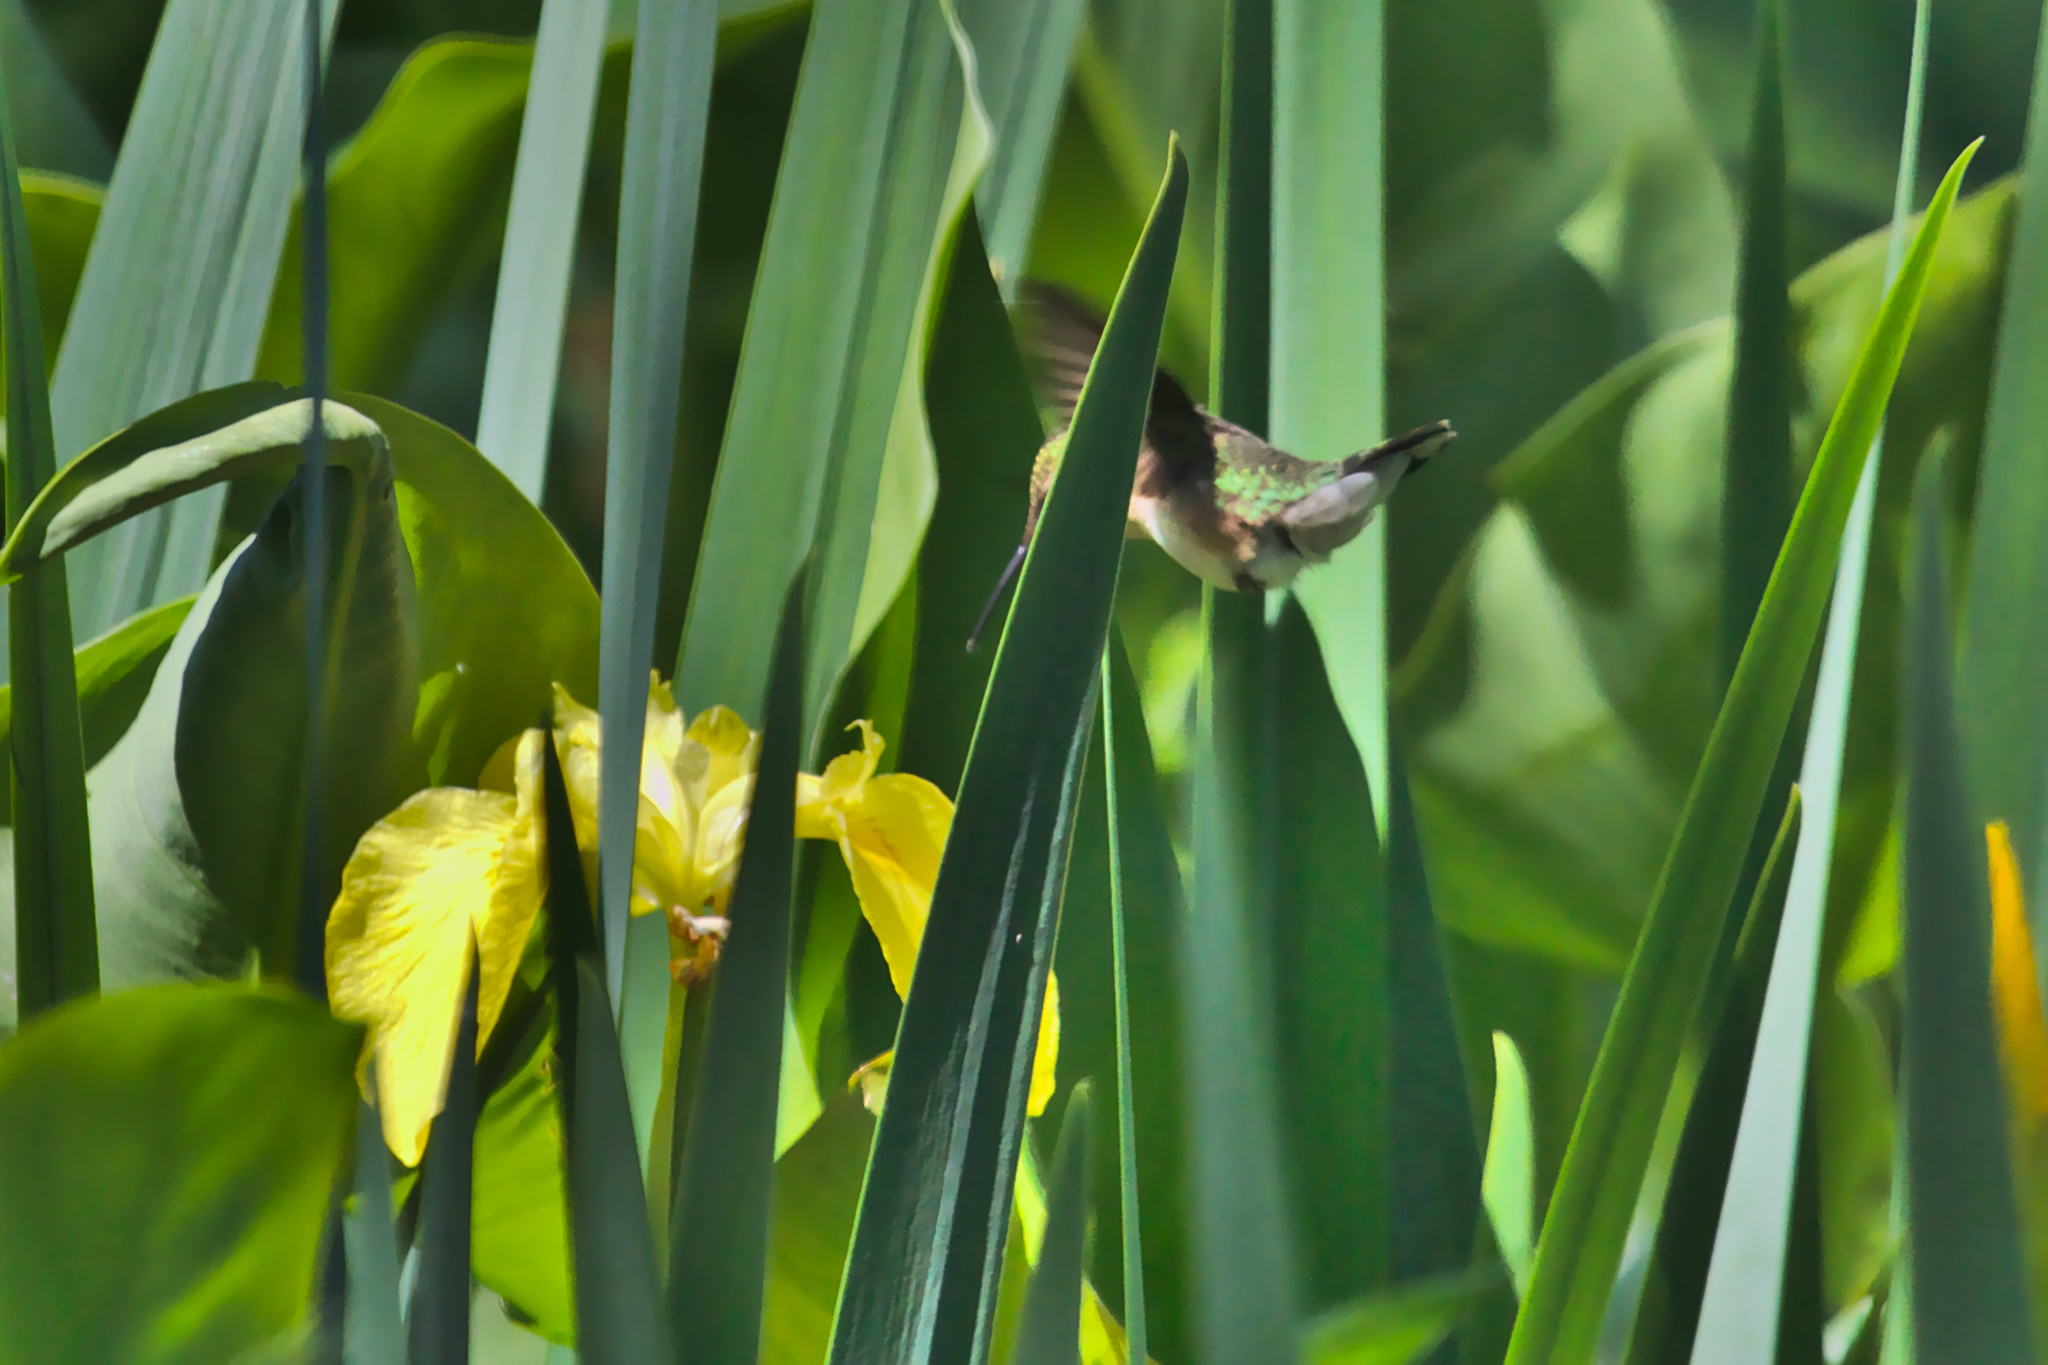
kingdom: Animalia
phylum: Chordata
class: Aves
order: Apodiformes
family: Trochilidae
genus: Archilochus
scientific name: Archilochus colubris
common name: Ruby-throated hummingbird
